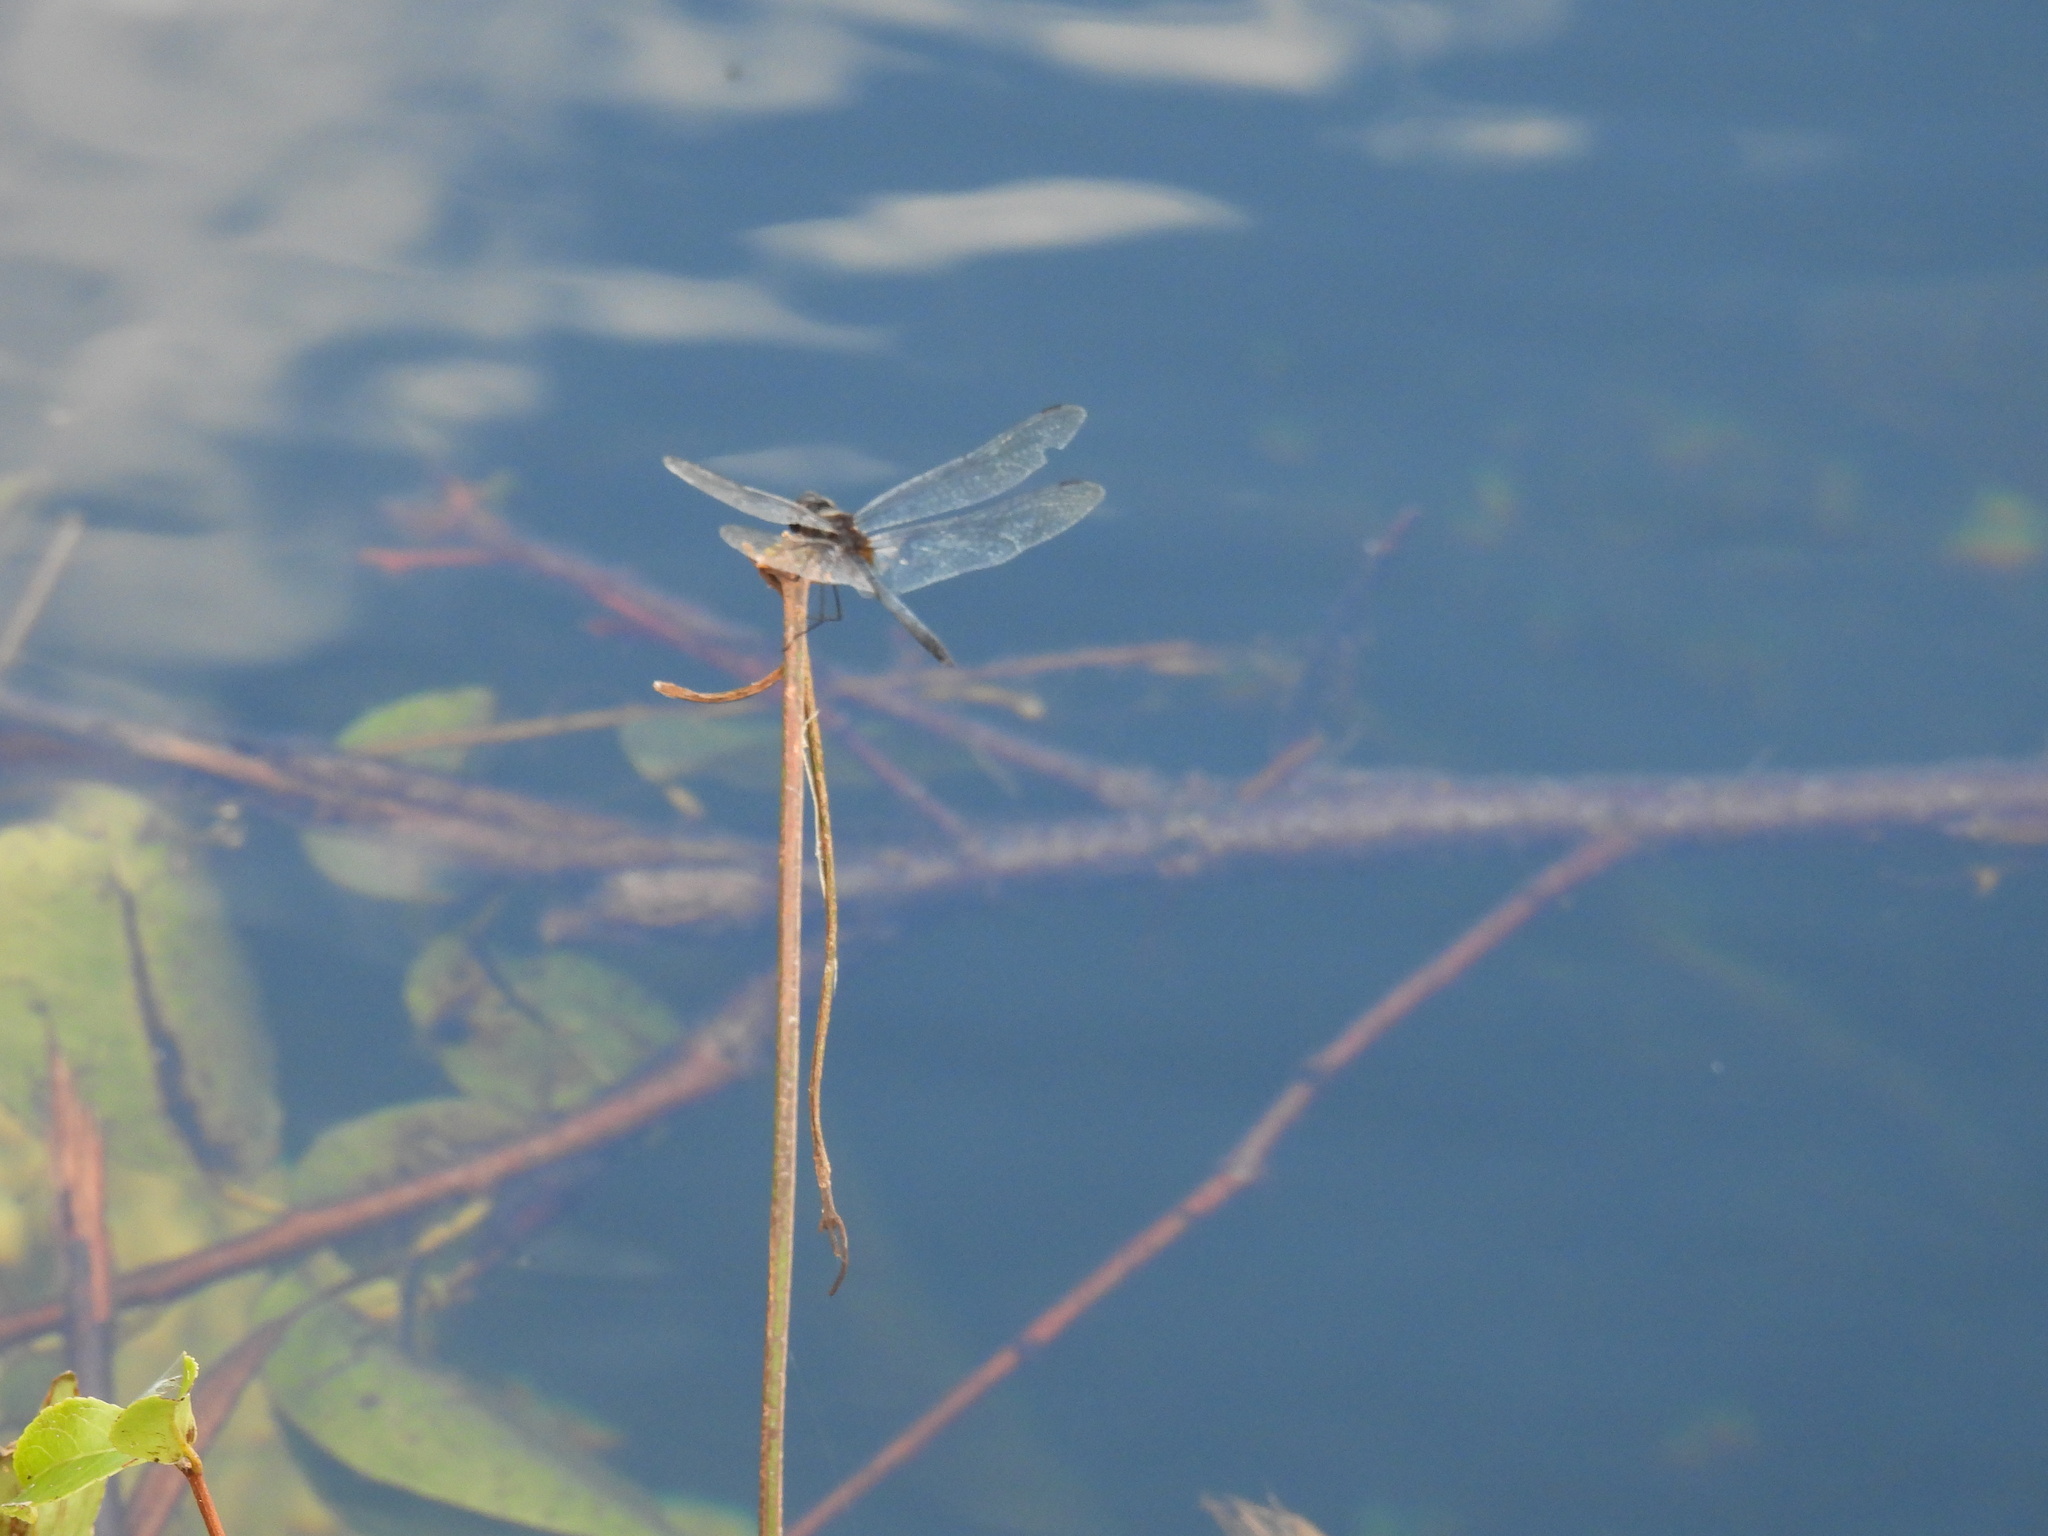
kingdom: Animalia
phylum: Arthropoda
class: Insecta
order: Odonata
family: Libellulidae
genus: Idiataphe
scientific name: Idiataphe cubensis
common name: Metallic pennant
